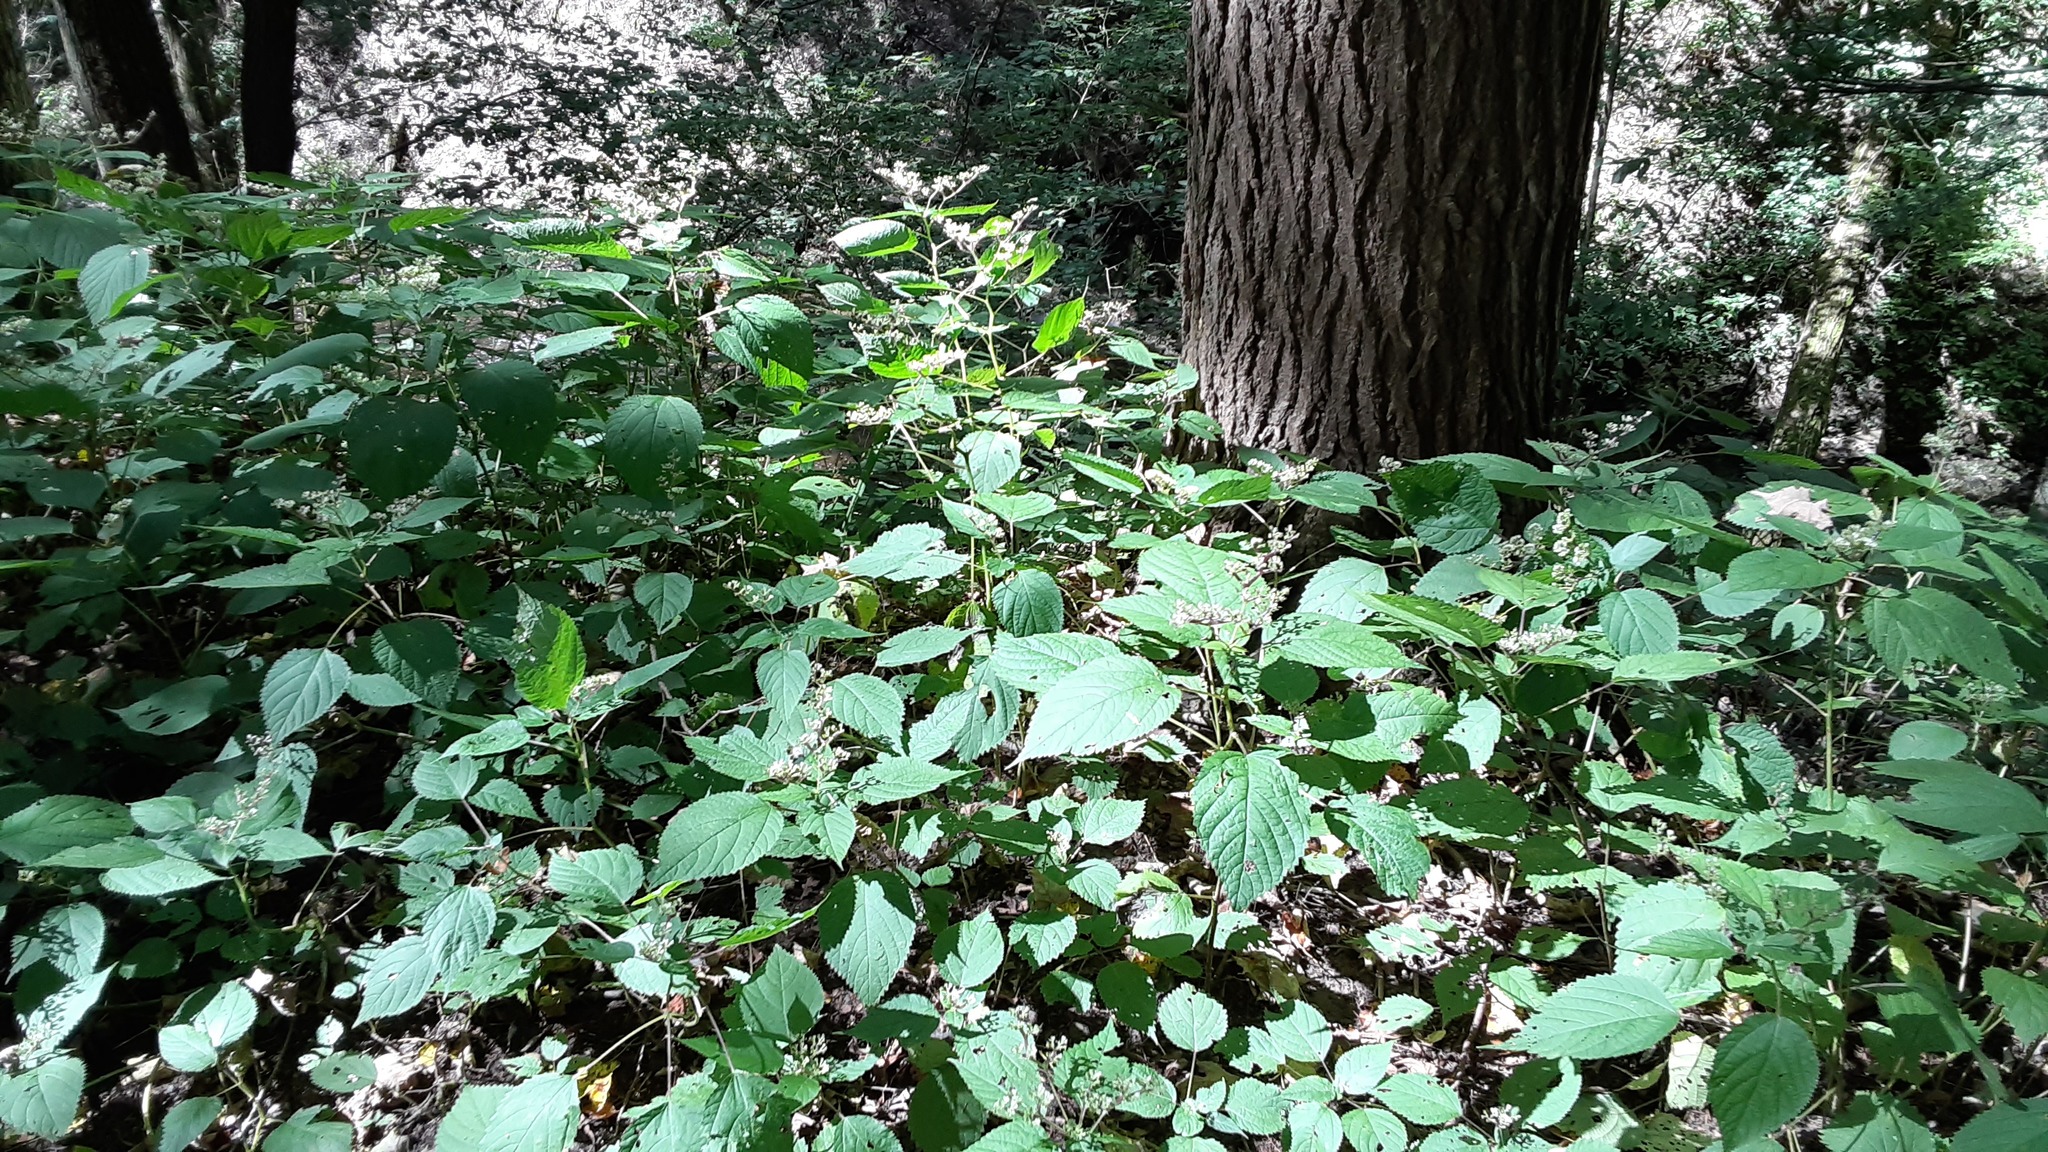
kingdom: Plantae
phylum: Tracheophyta
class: Magnoliopsida
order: Rosales
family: Urticaceae
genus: Laportea
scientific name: Laportea canadensis
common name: Canada nettle
